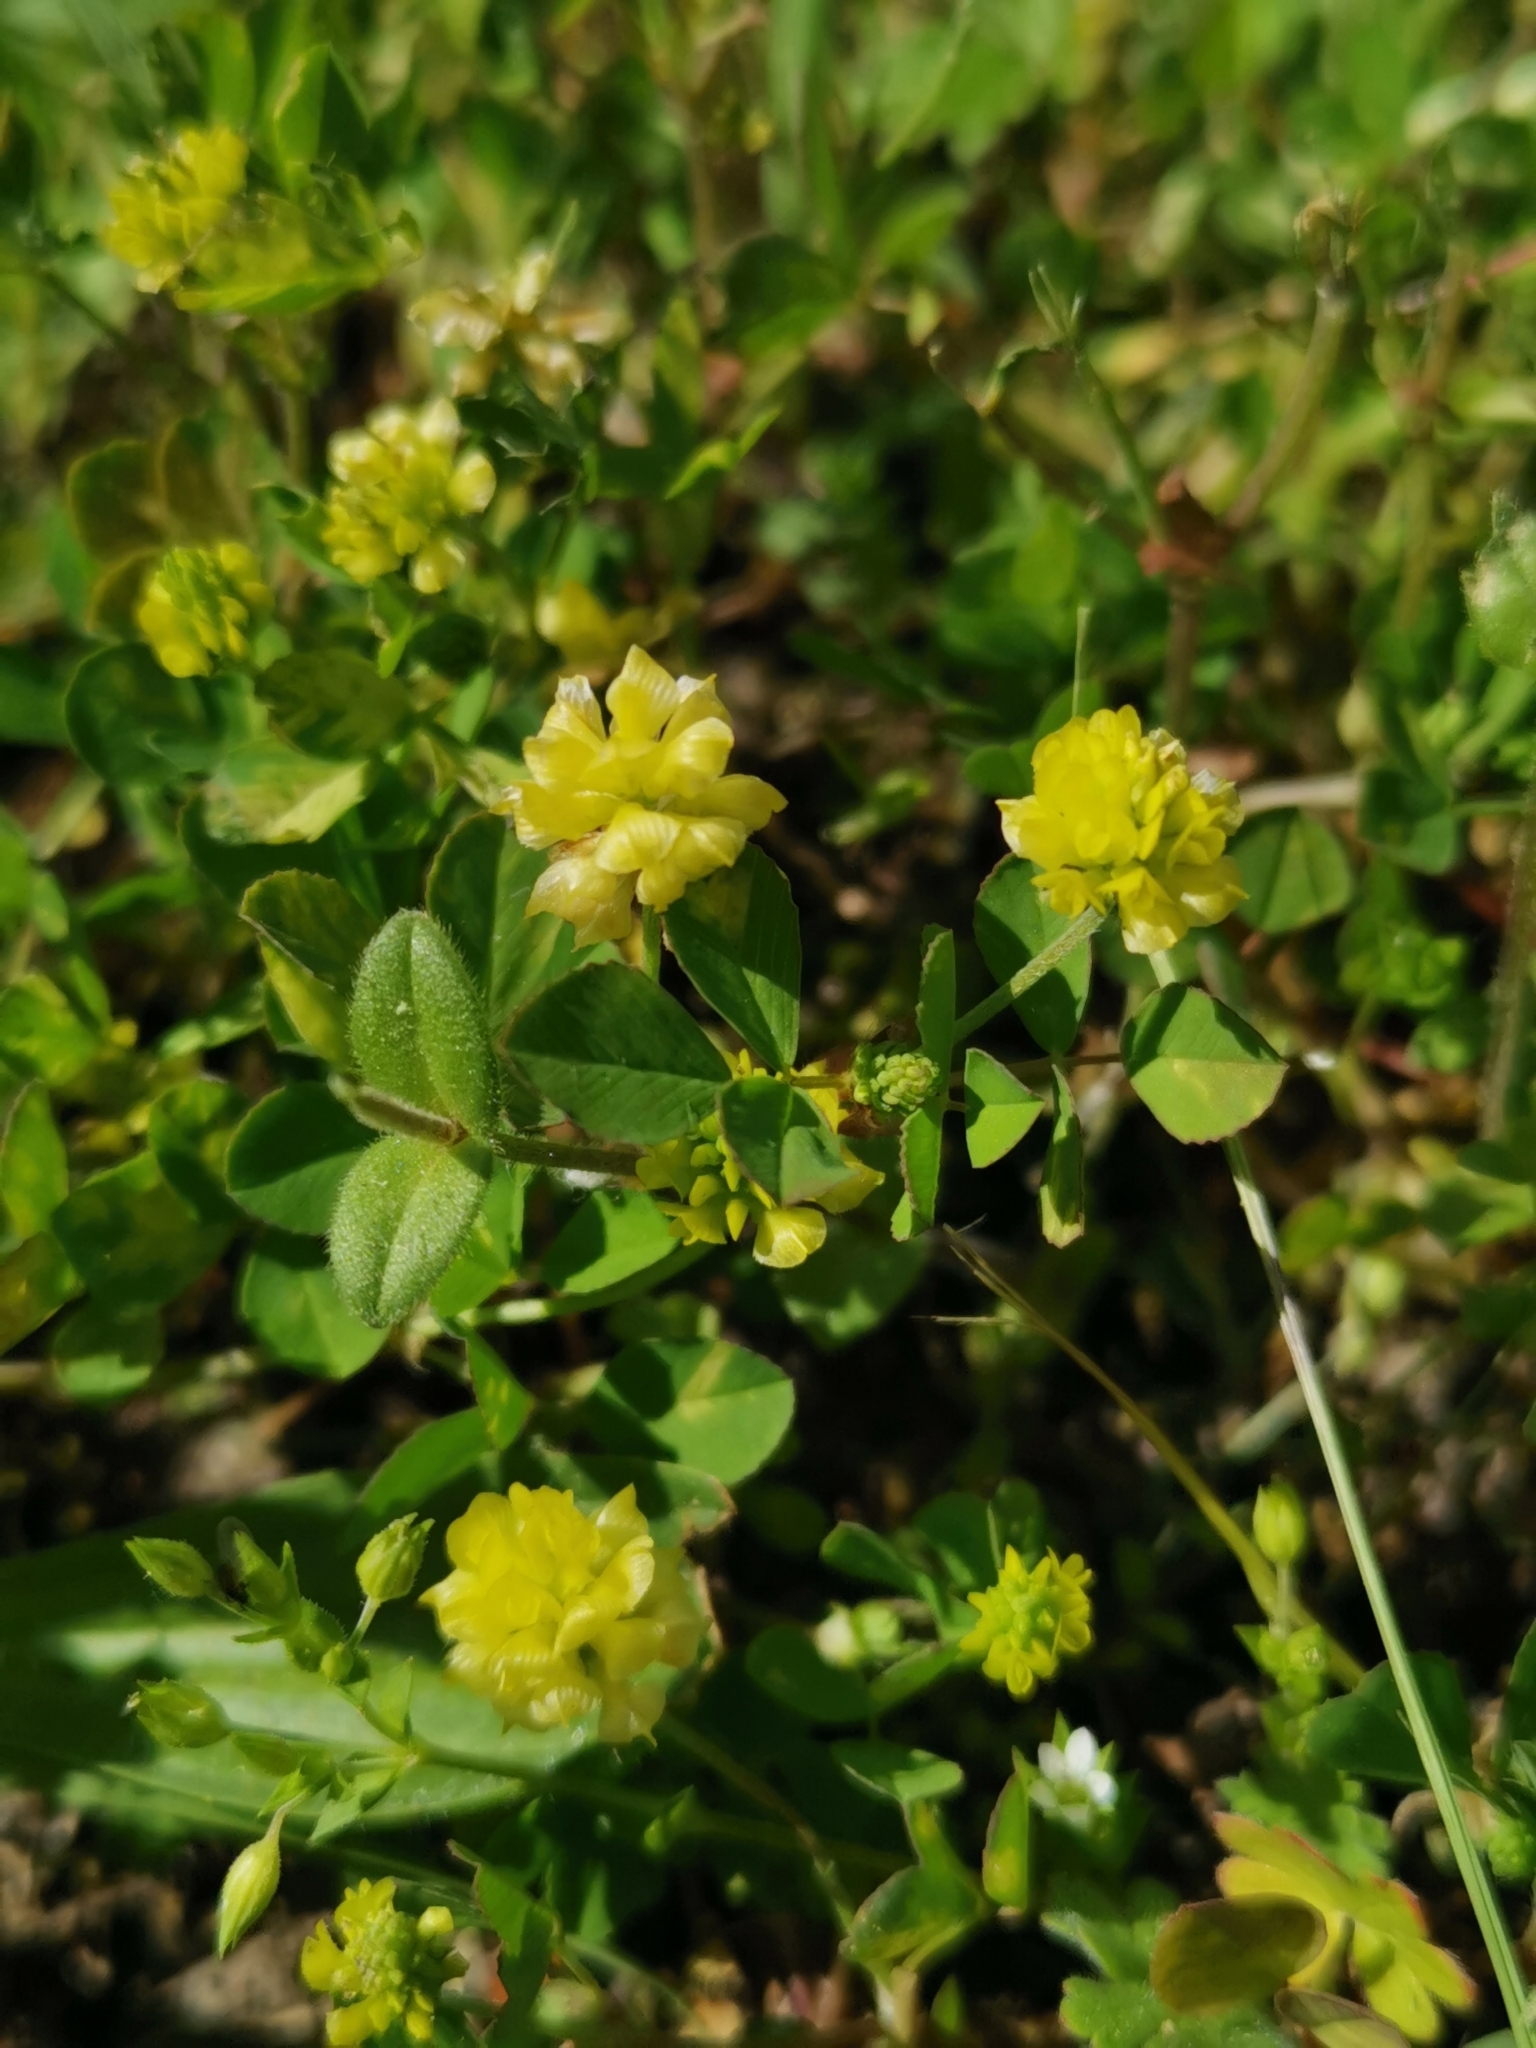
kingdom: Plantae
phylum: Tracheophyta
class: Magnoliopsida
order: Fabales
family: Fabaceae
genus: Trifolium
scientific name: Trifolium campestre
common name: Field clover
